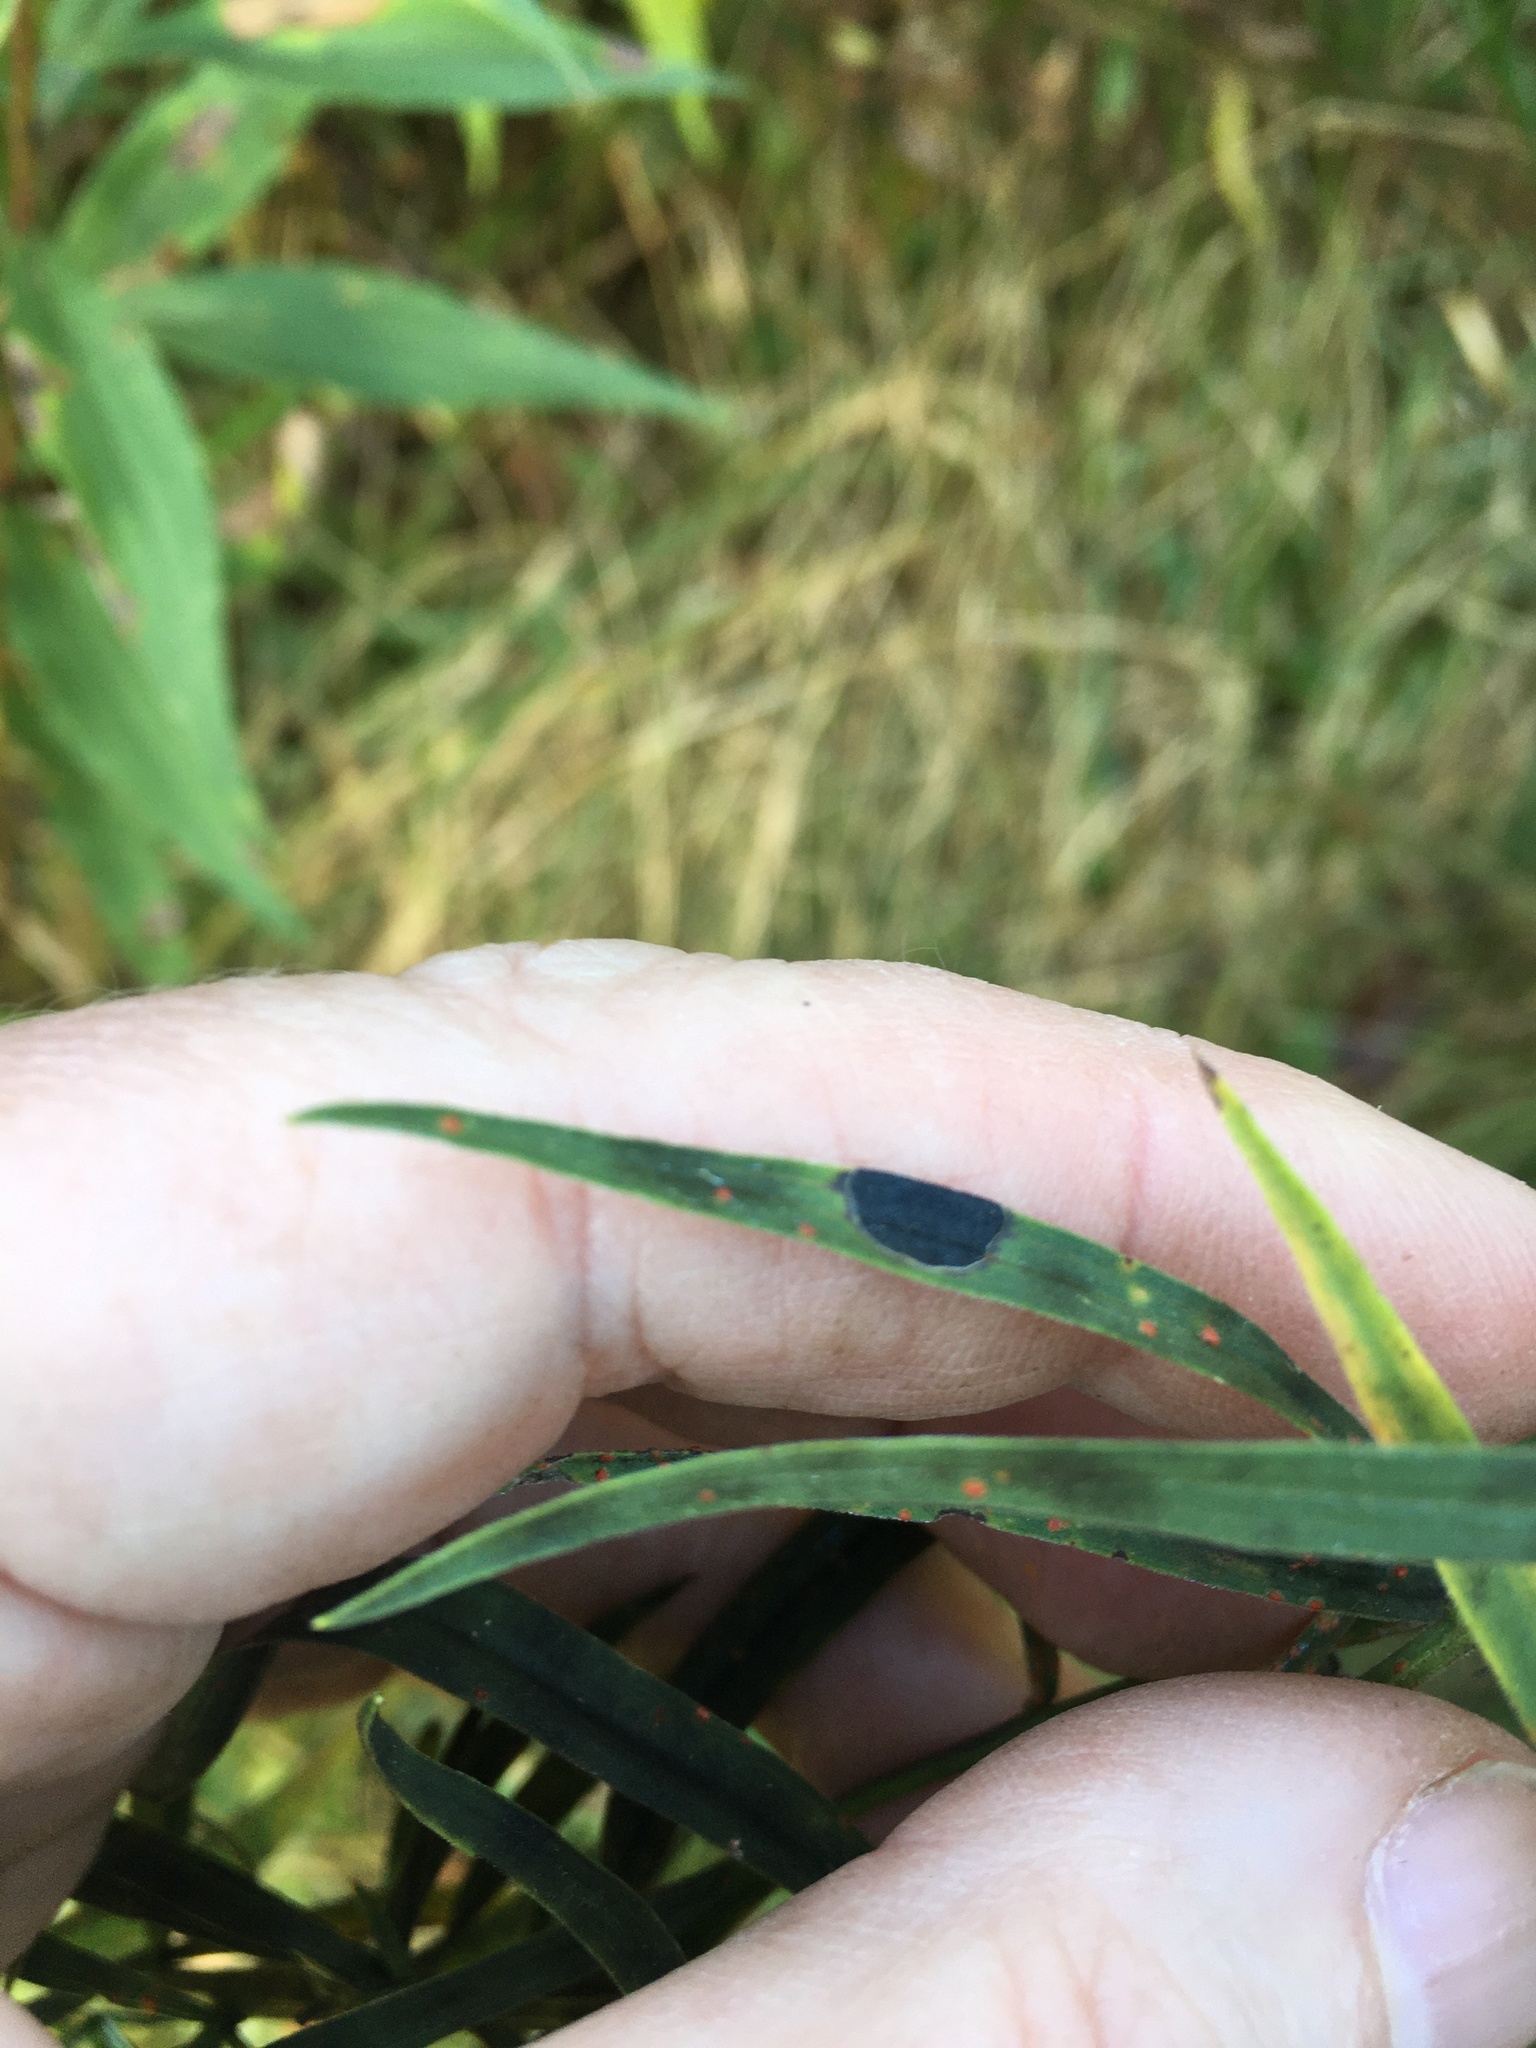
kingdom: Animalia
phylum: Arthropoda
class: Insecta
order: Diptera
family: Cecidomyiidae
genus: Asteromyia
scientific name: Asteromyia euthamiae
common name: Euthamia leaf gall midge
